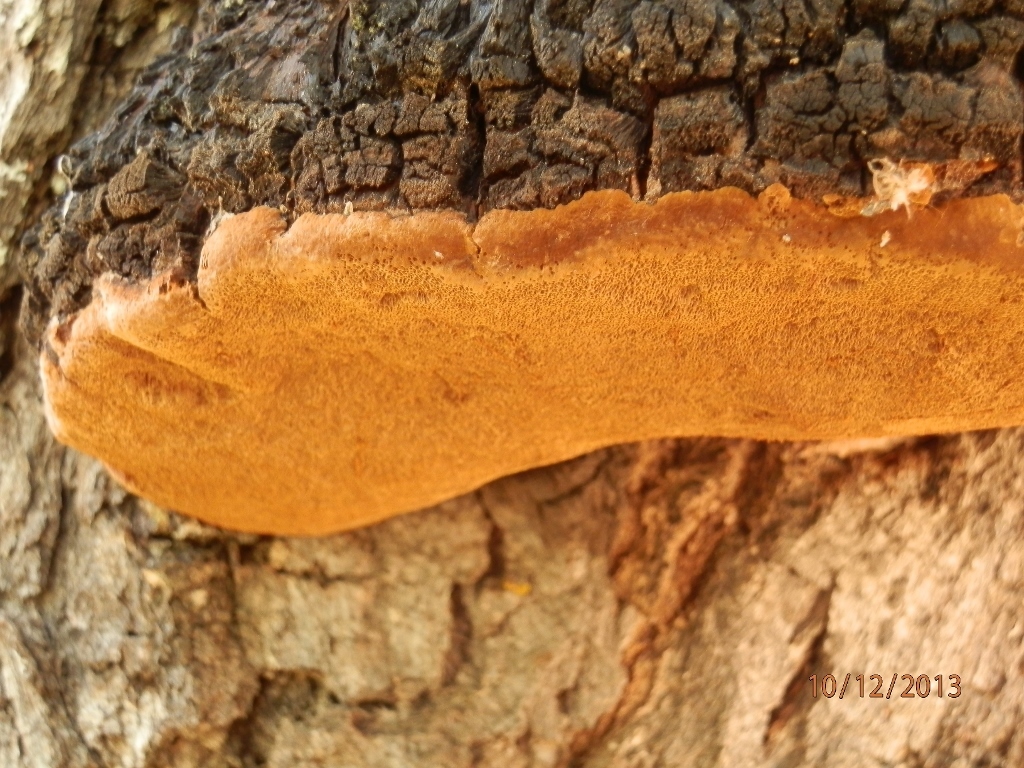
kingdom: Fungi
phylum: Basidiomycota
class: Agaricomycetes
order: Hymenochaetales
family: Hymenochaetaceae
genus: Meganotus
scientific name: Meganotus everhartii
